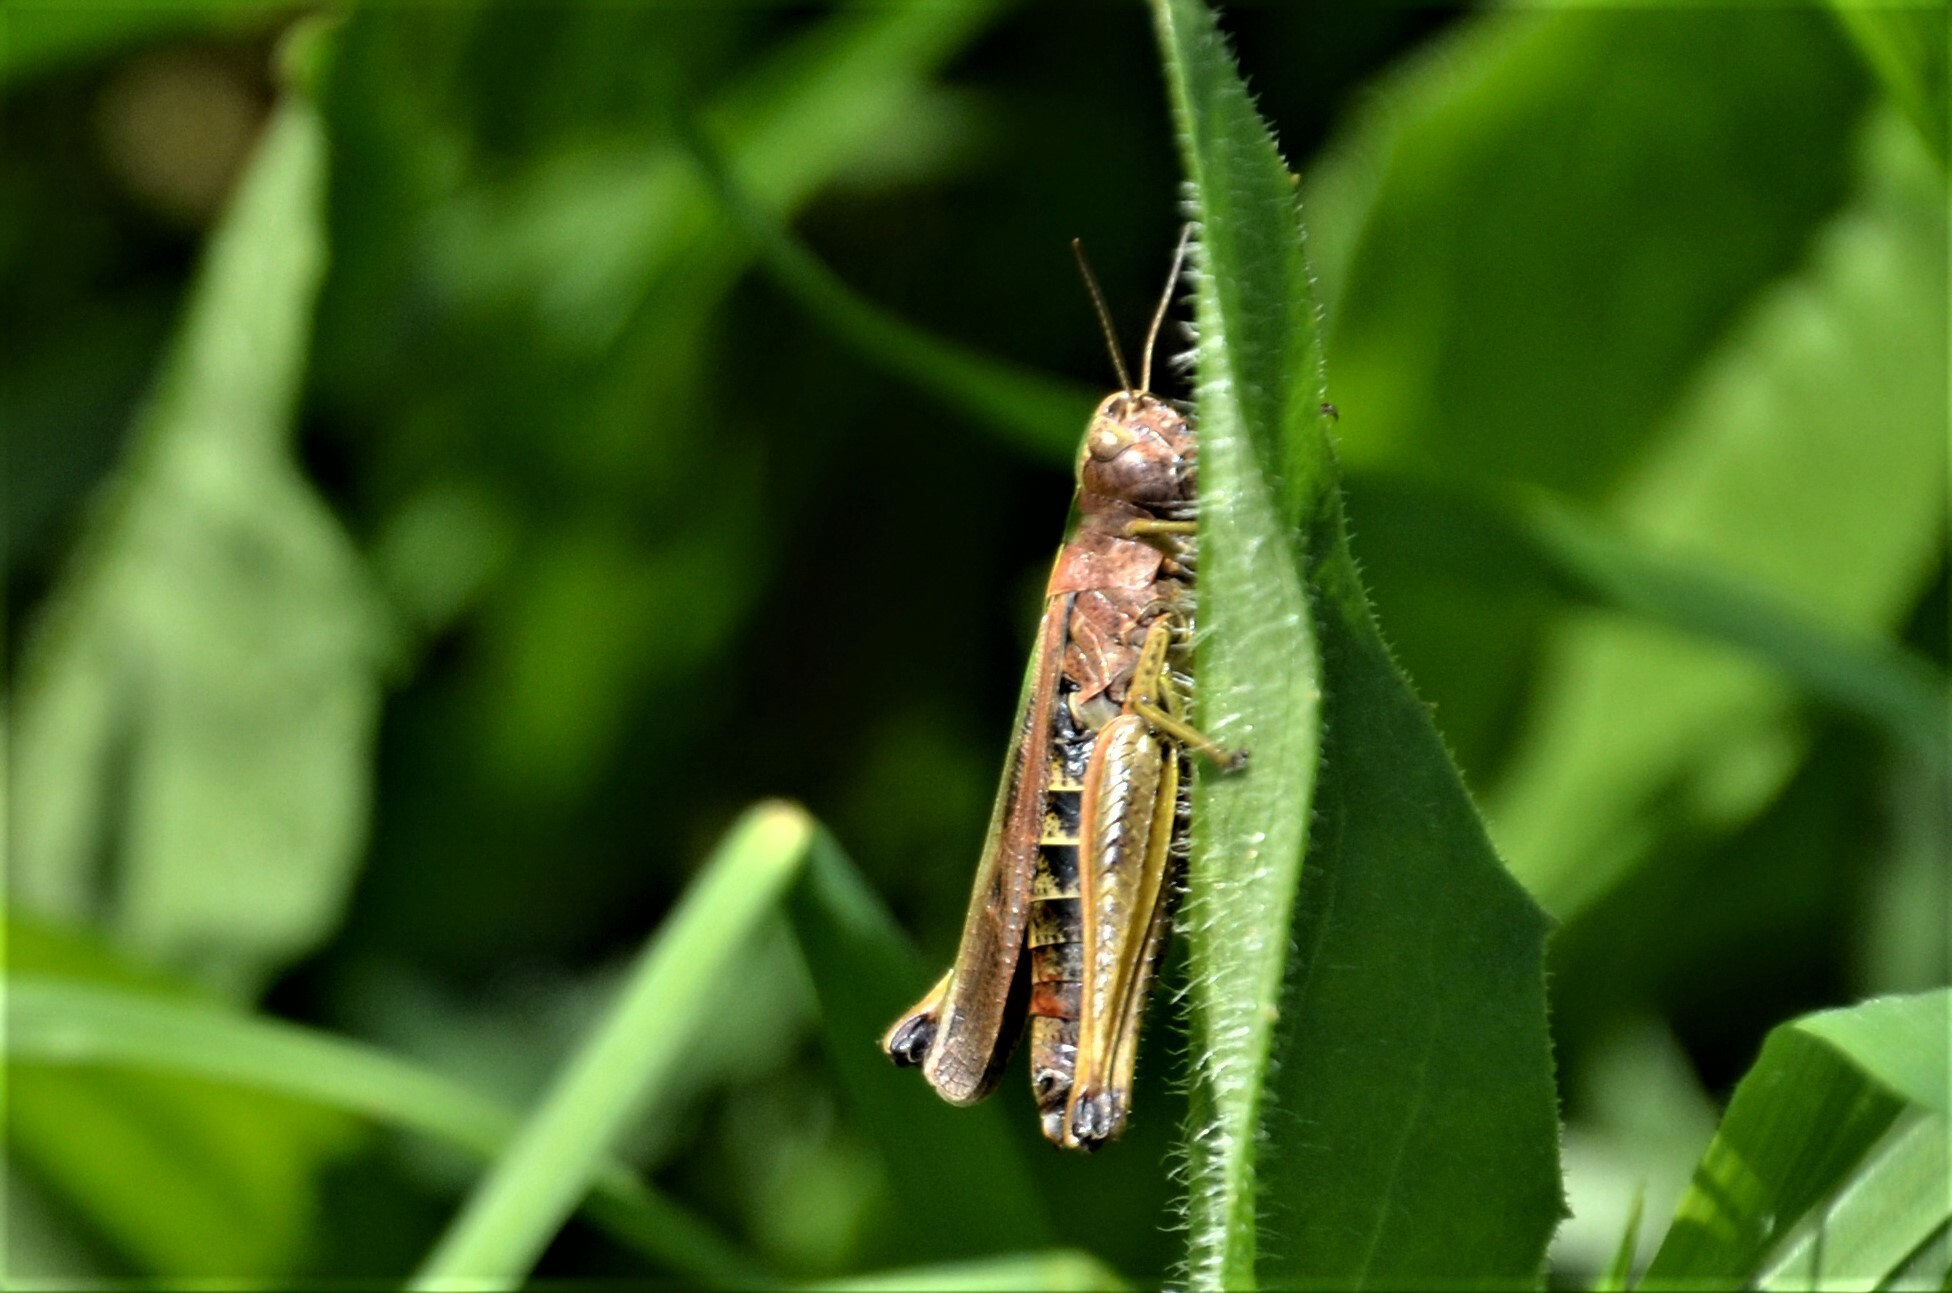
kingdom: Animalia
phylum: Arthropoda
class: Insecta
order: Orthoptera
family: Acrididae
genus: Omocestus
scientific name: Omocestus viridulus
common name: Common green grasshopper
